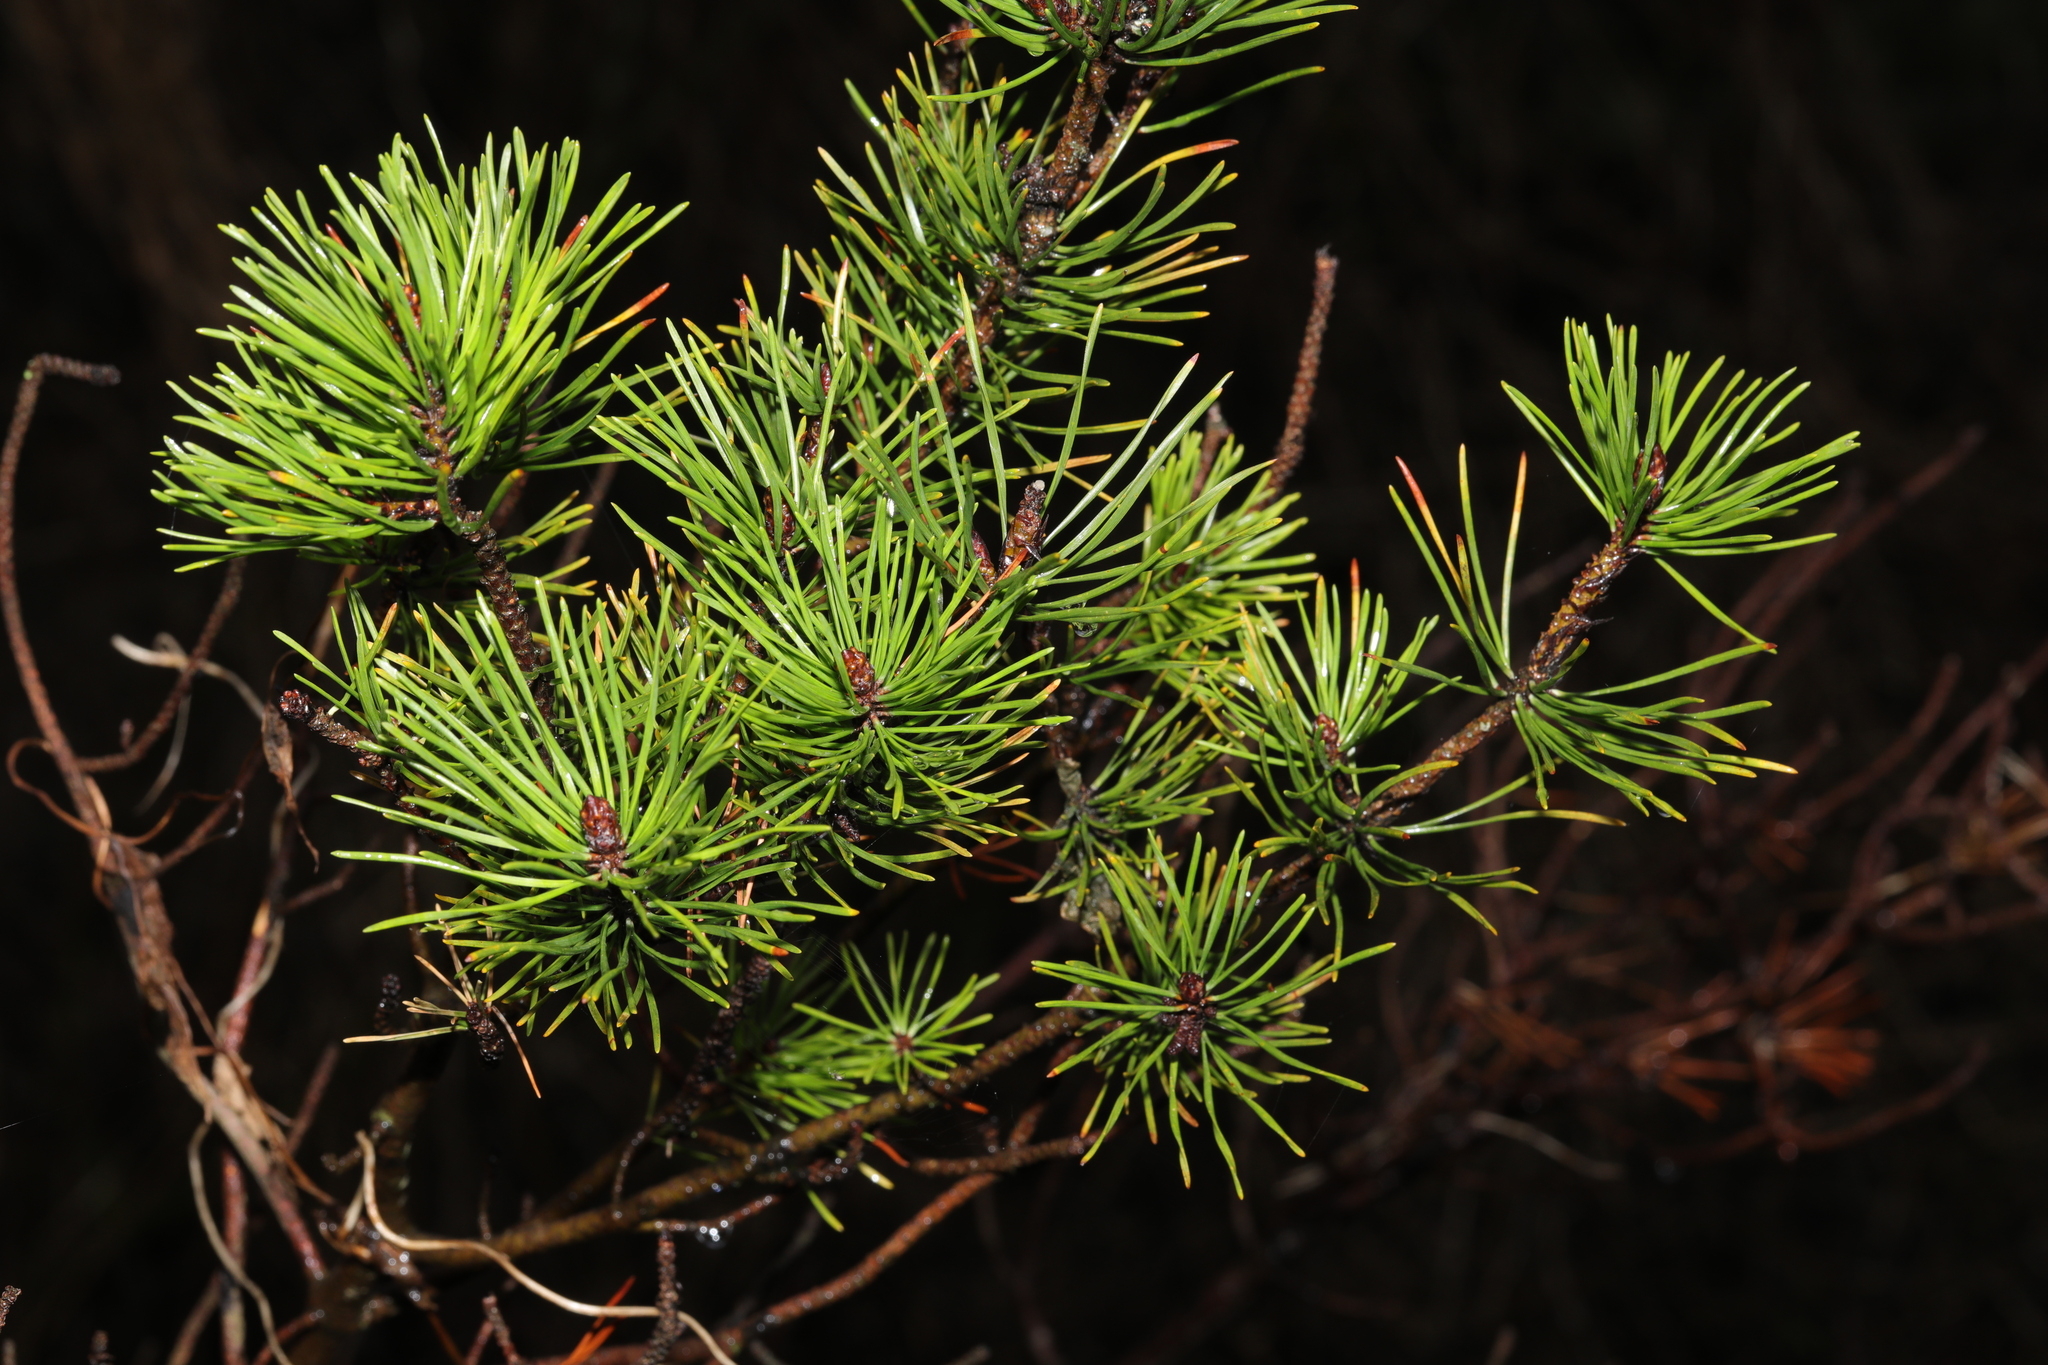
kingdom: Plantae
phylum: Tracheophyta
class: Pinopsida
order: Pinales
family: Pinaceae
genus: Pinus
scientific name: Pinus sylvestris
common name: Scots pine
